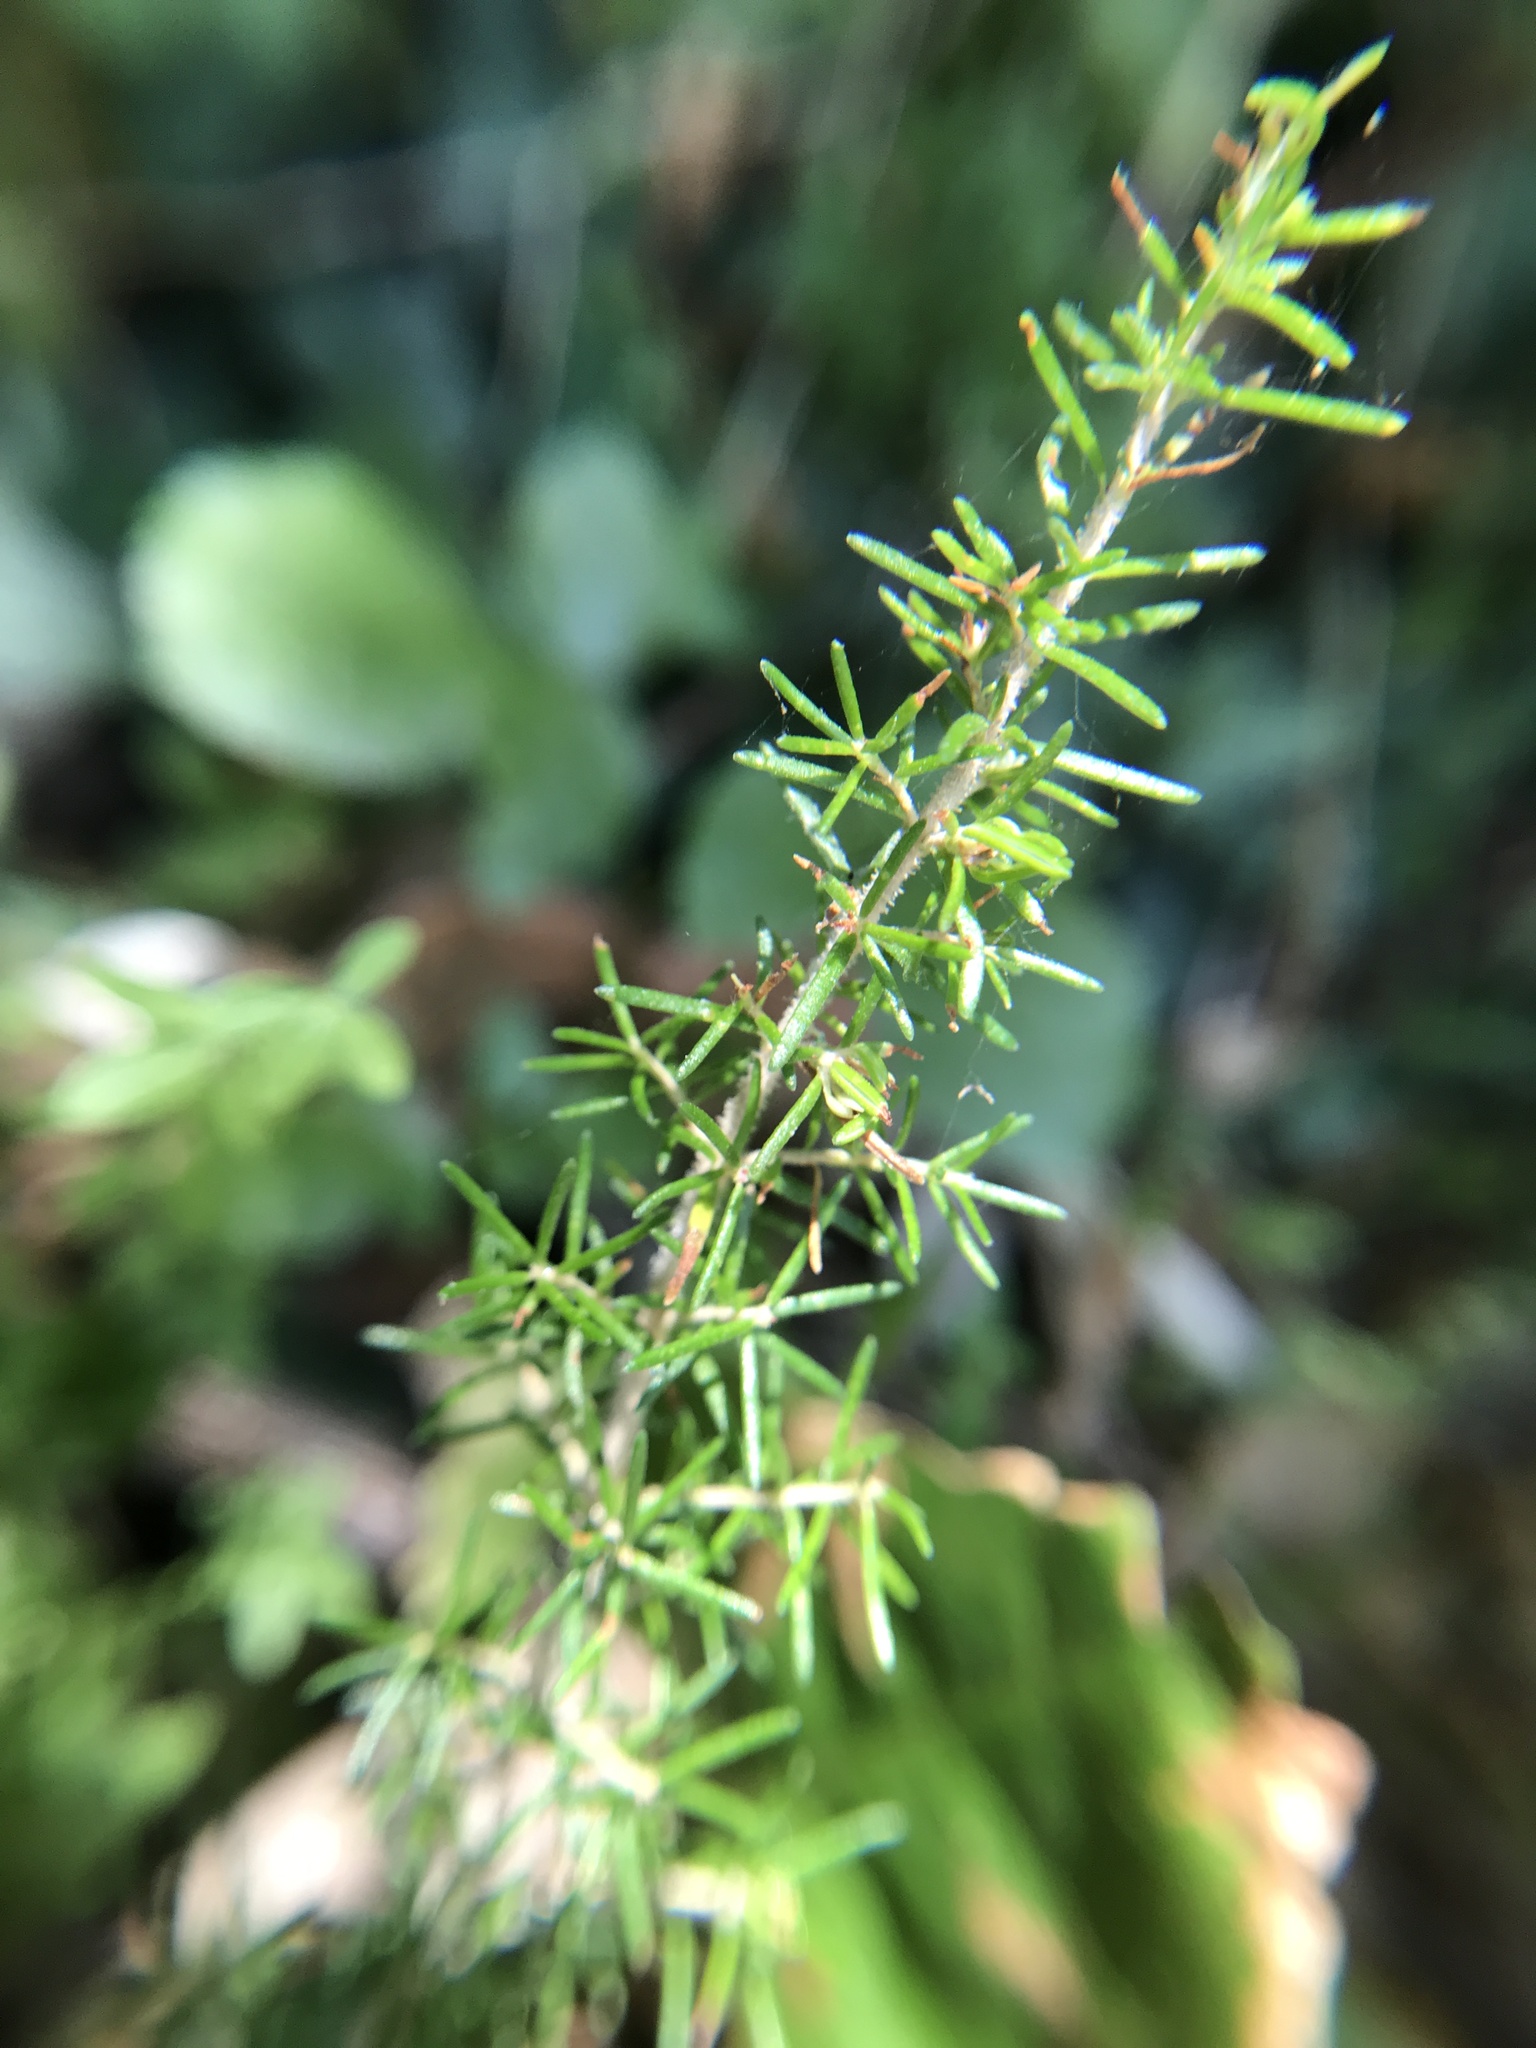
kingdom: Plantae
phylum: Tracheophyta
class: Magnoliopsida
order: Ericales
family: Ericaceae
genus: Erica
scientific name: Erica arborea
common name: Tree heath
